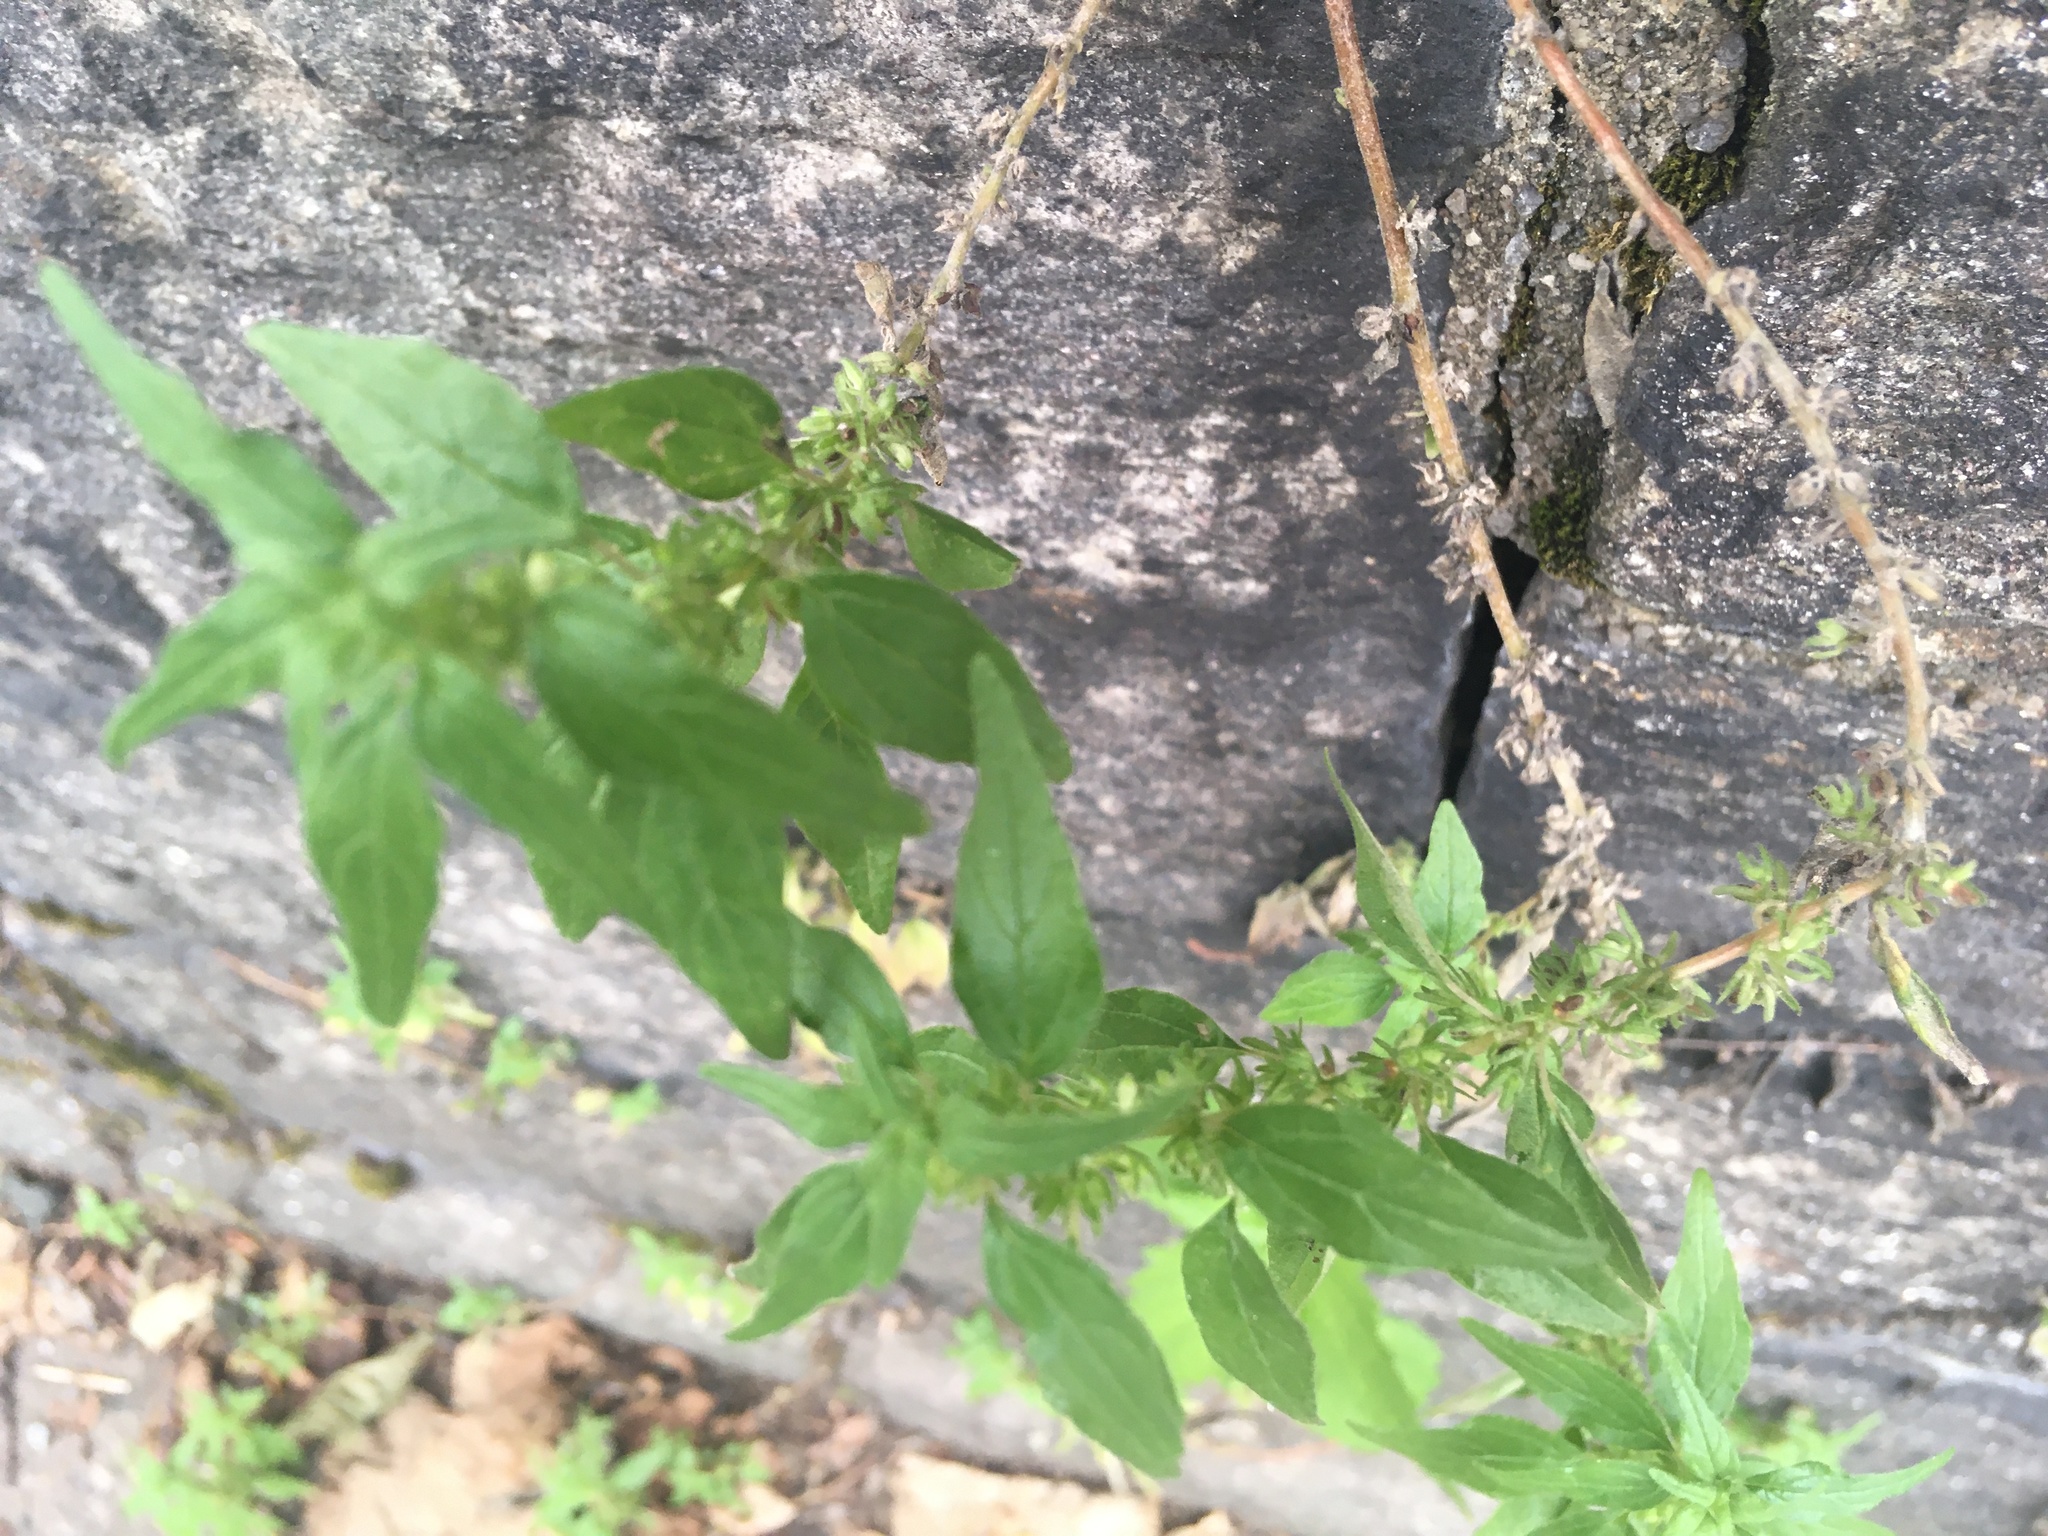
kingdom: Plantae
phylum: Tracheophyta
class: Magnoliopsida
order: Rosales
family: Urticaceae
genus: Parietaria
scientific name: Parietaria pensylvanica
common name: Pennsylvania pellitory
